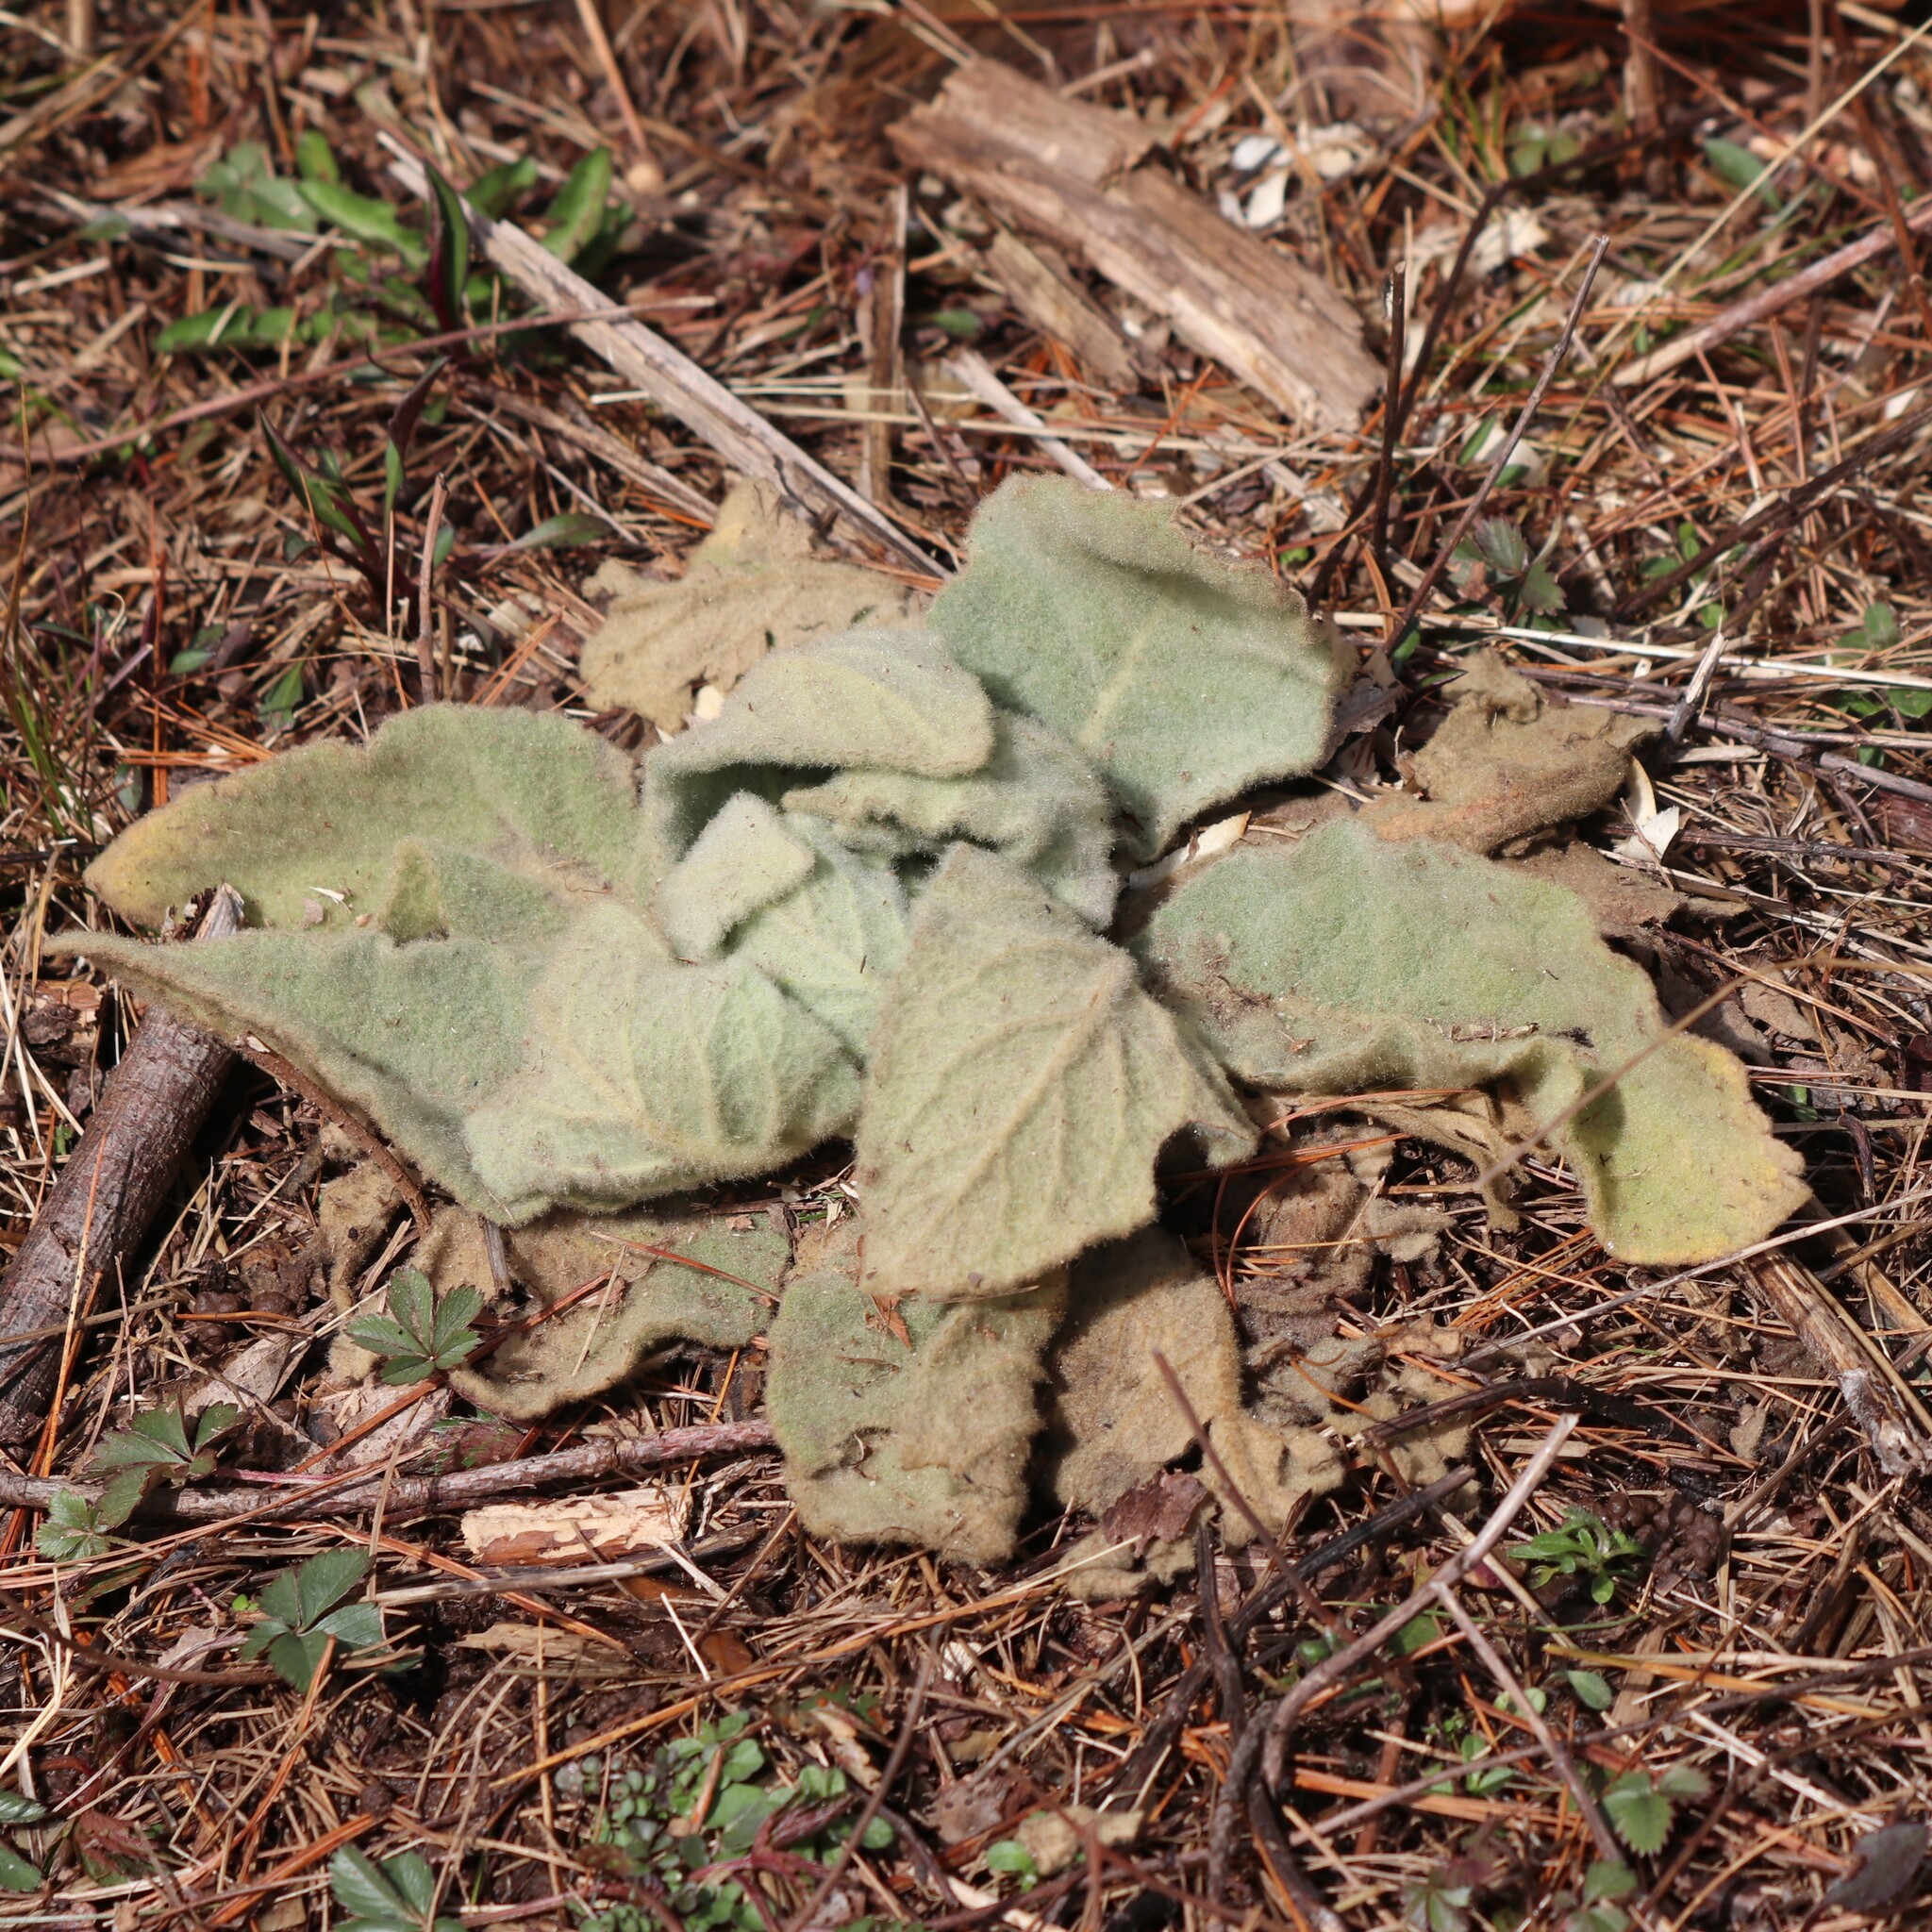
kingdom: Plantae
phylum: Tracheophyta
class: Magnoliopsida
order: Lamiales
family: Scrophulariaceae
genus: Verbascum
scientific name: Verbascum thapsus
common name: Common mullein
